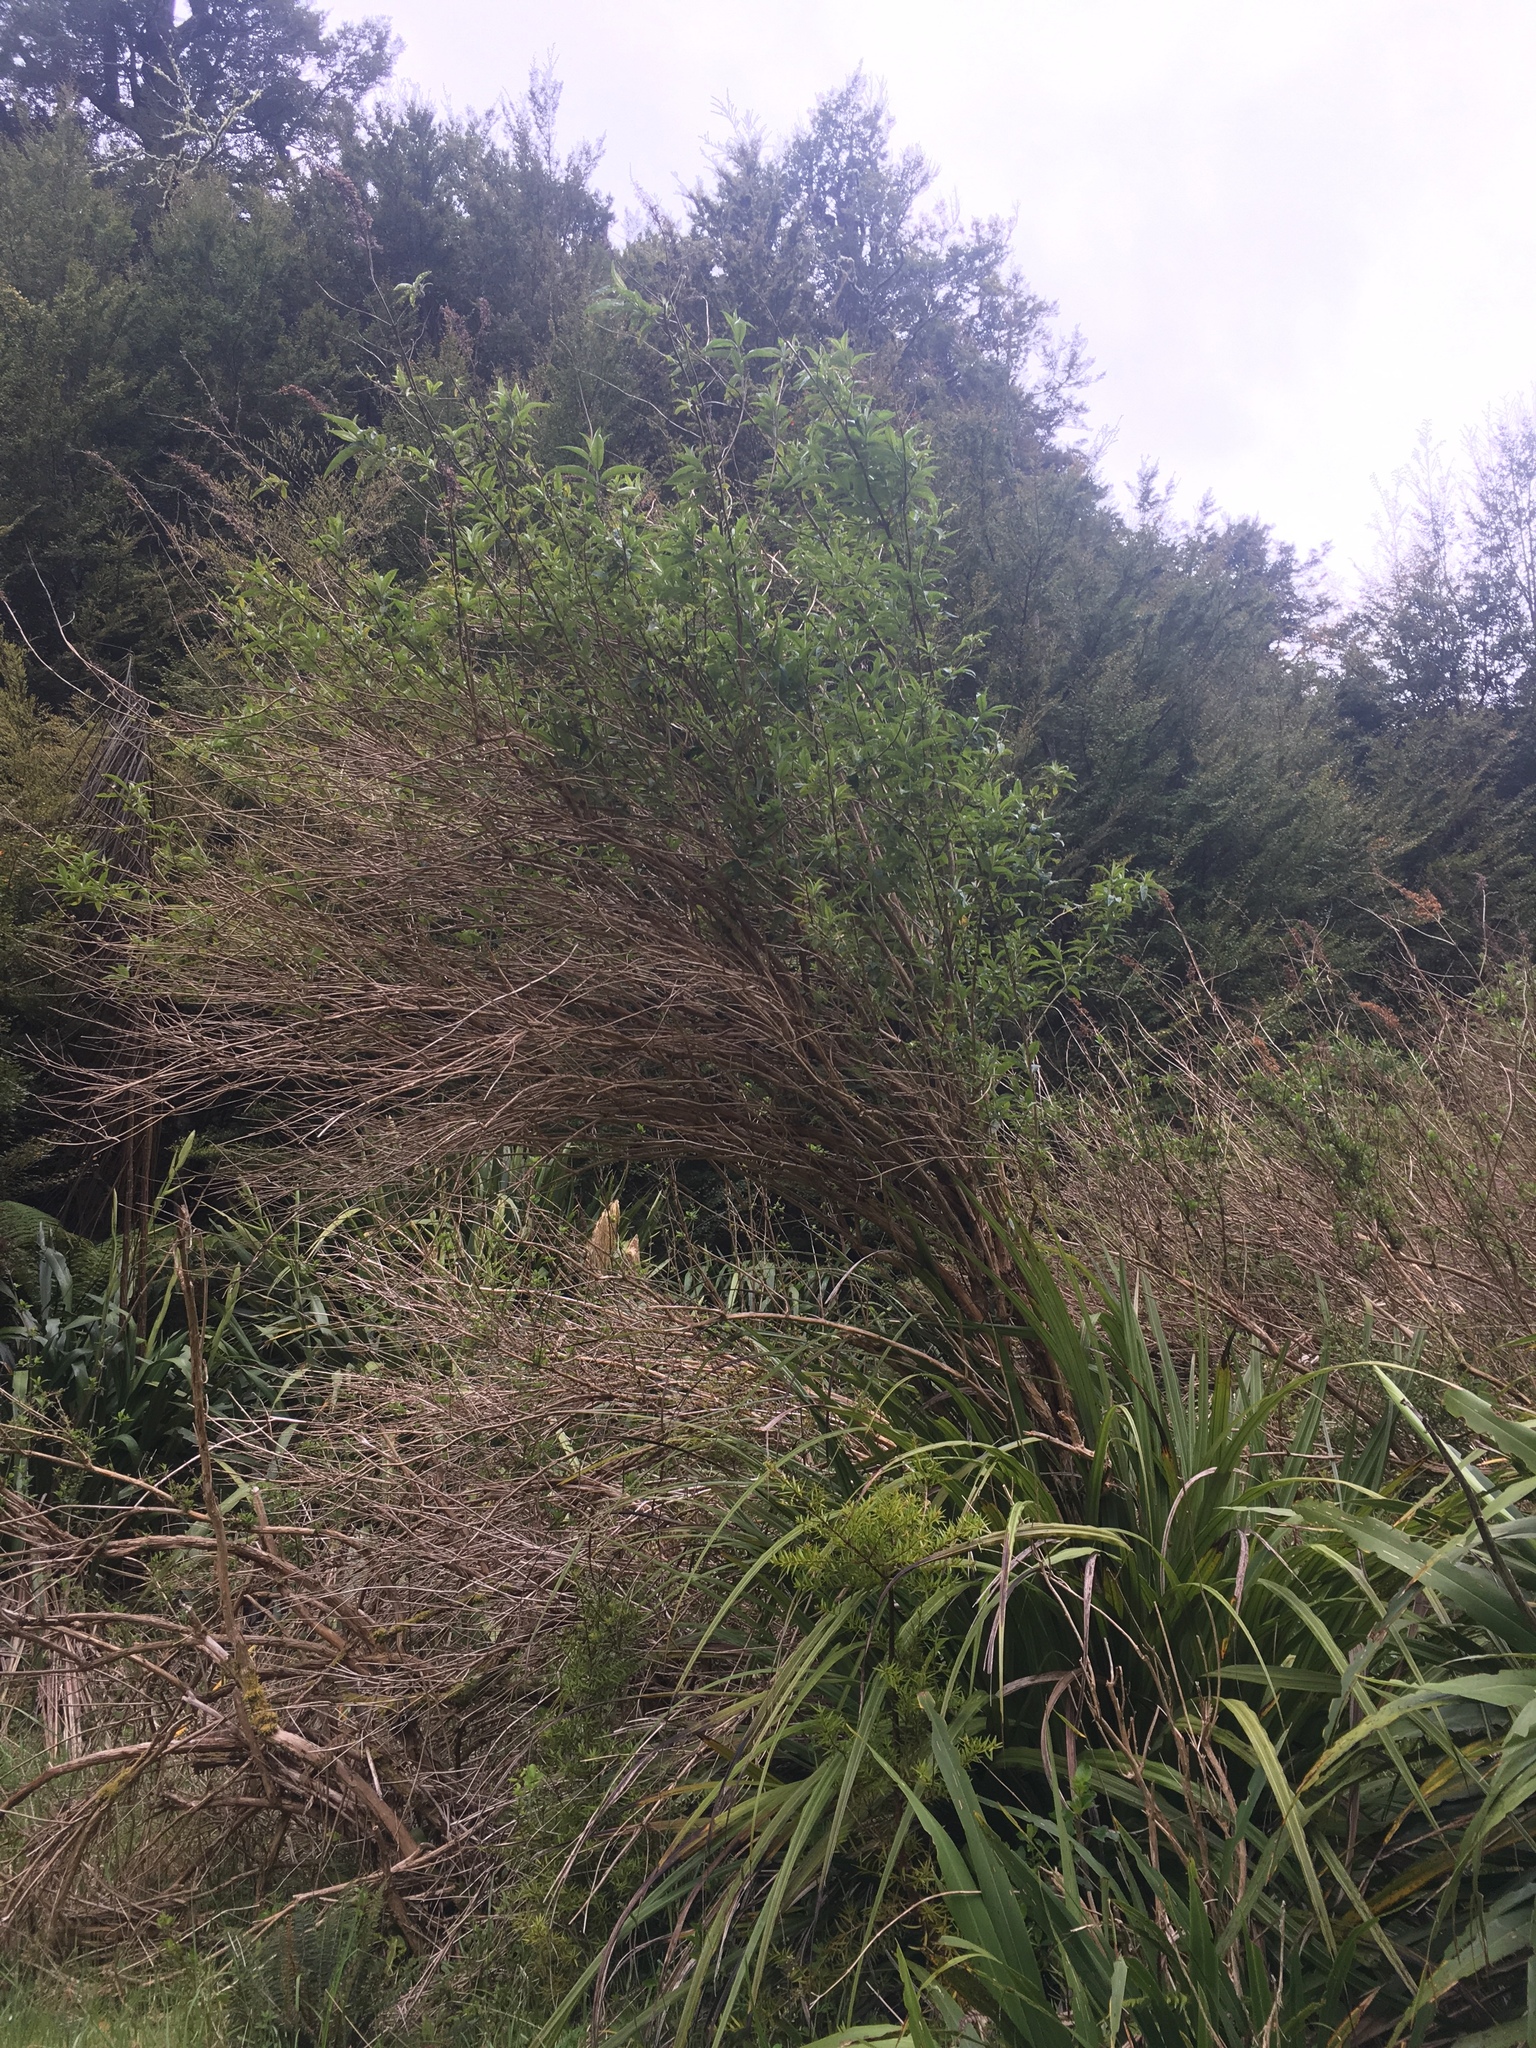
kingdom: Plantae
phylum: Tracheophyta
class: Magnoliopsida
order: Lamiales
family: Scrophulariaceae
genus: Buddleja
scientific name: Buddleja davidii
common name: Butterfly-bush
